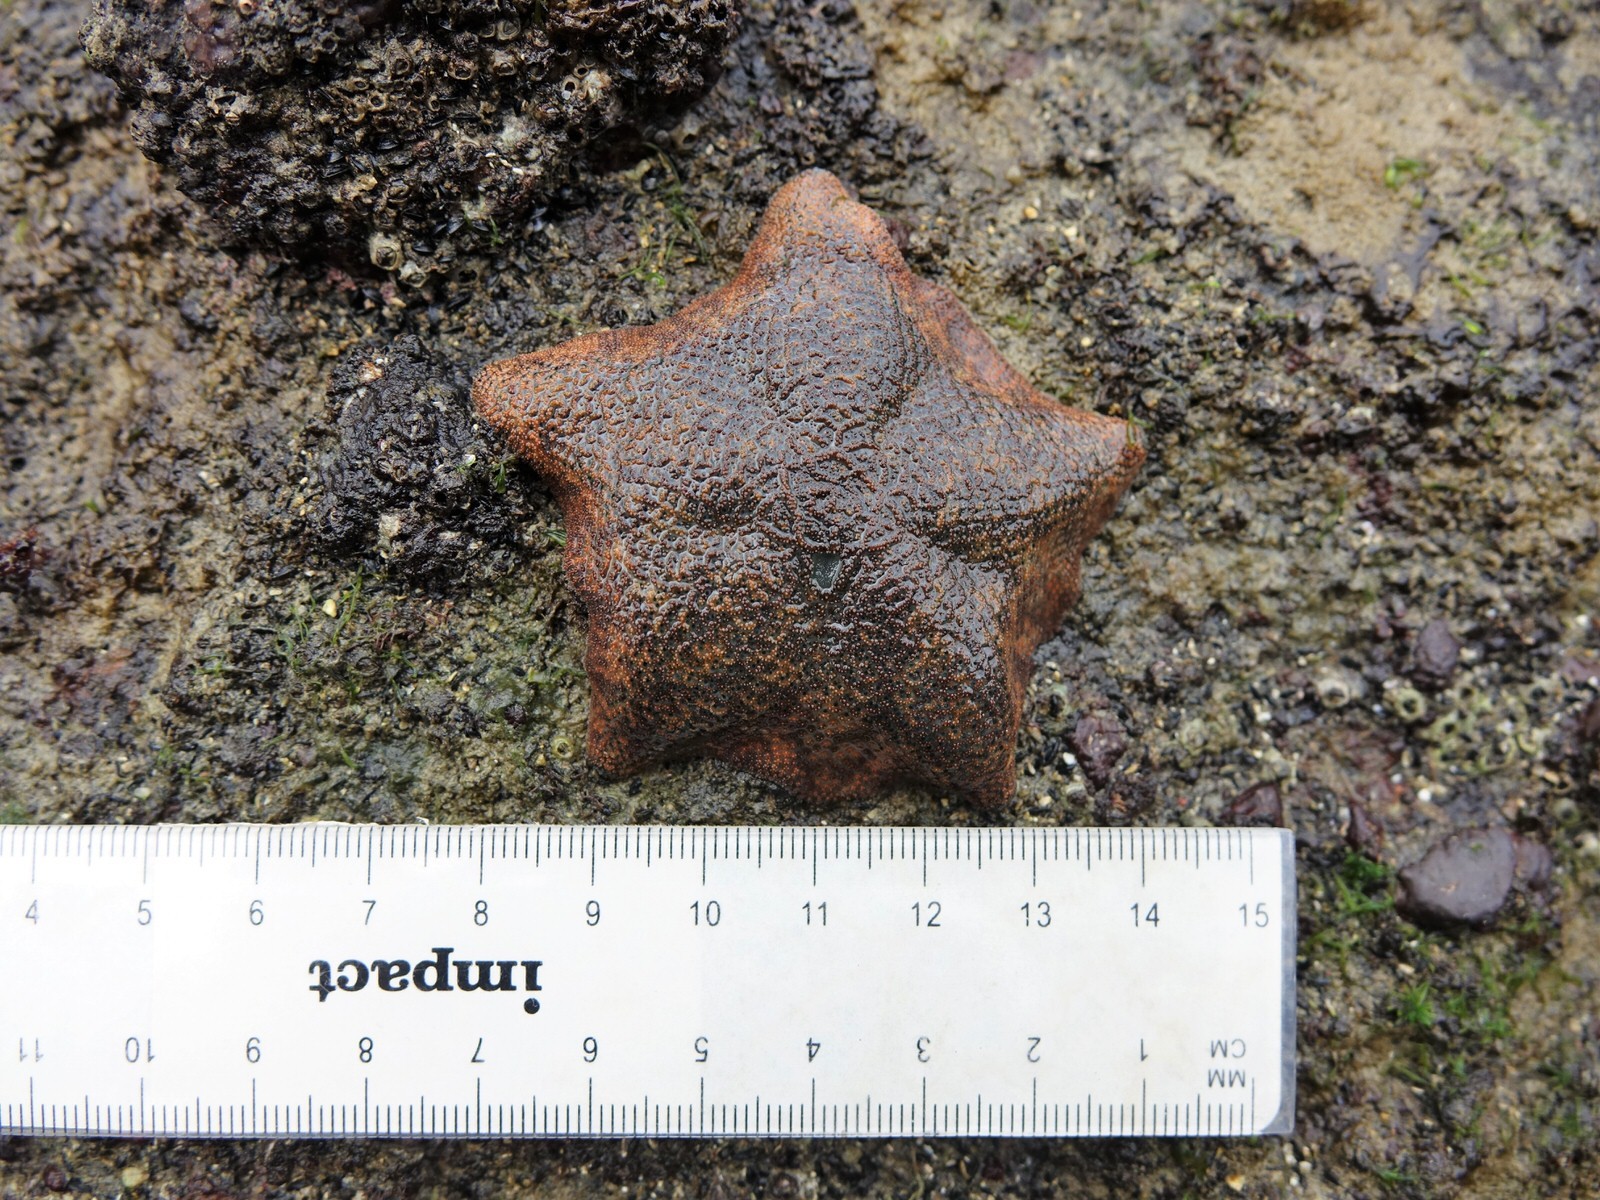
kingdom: Animalia
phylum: Echinodermata
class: Asteroidea
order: Valvatida
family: Asterinidae
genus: Patiriella
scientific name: Patiriella regularis
